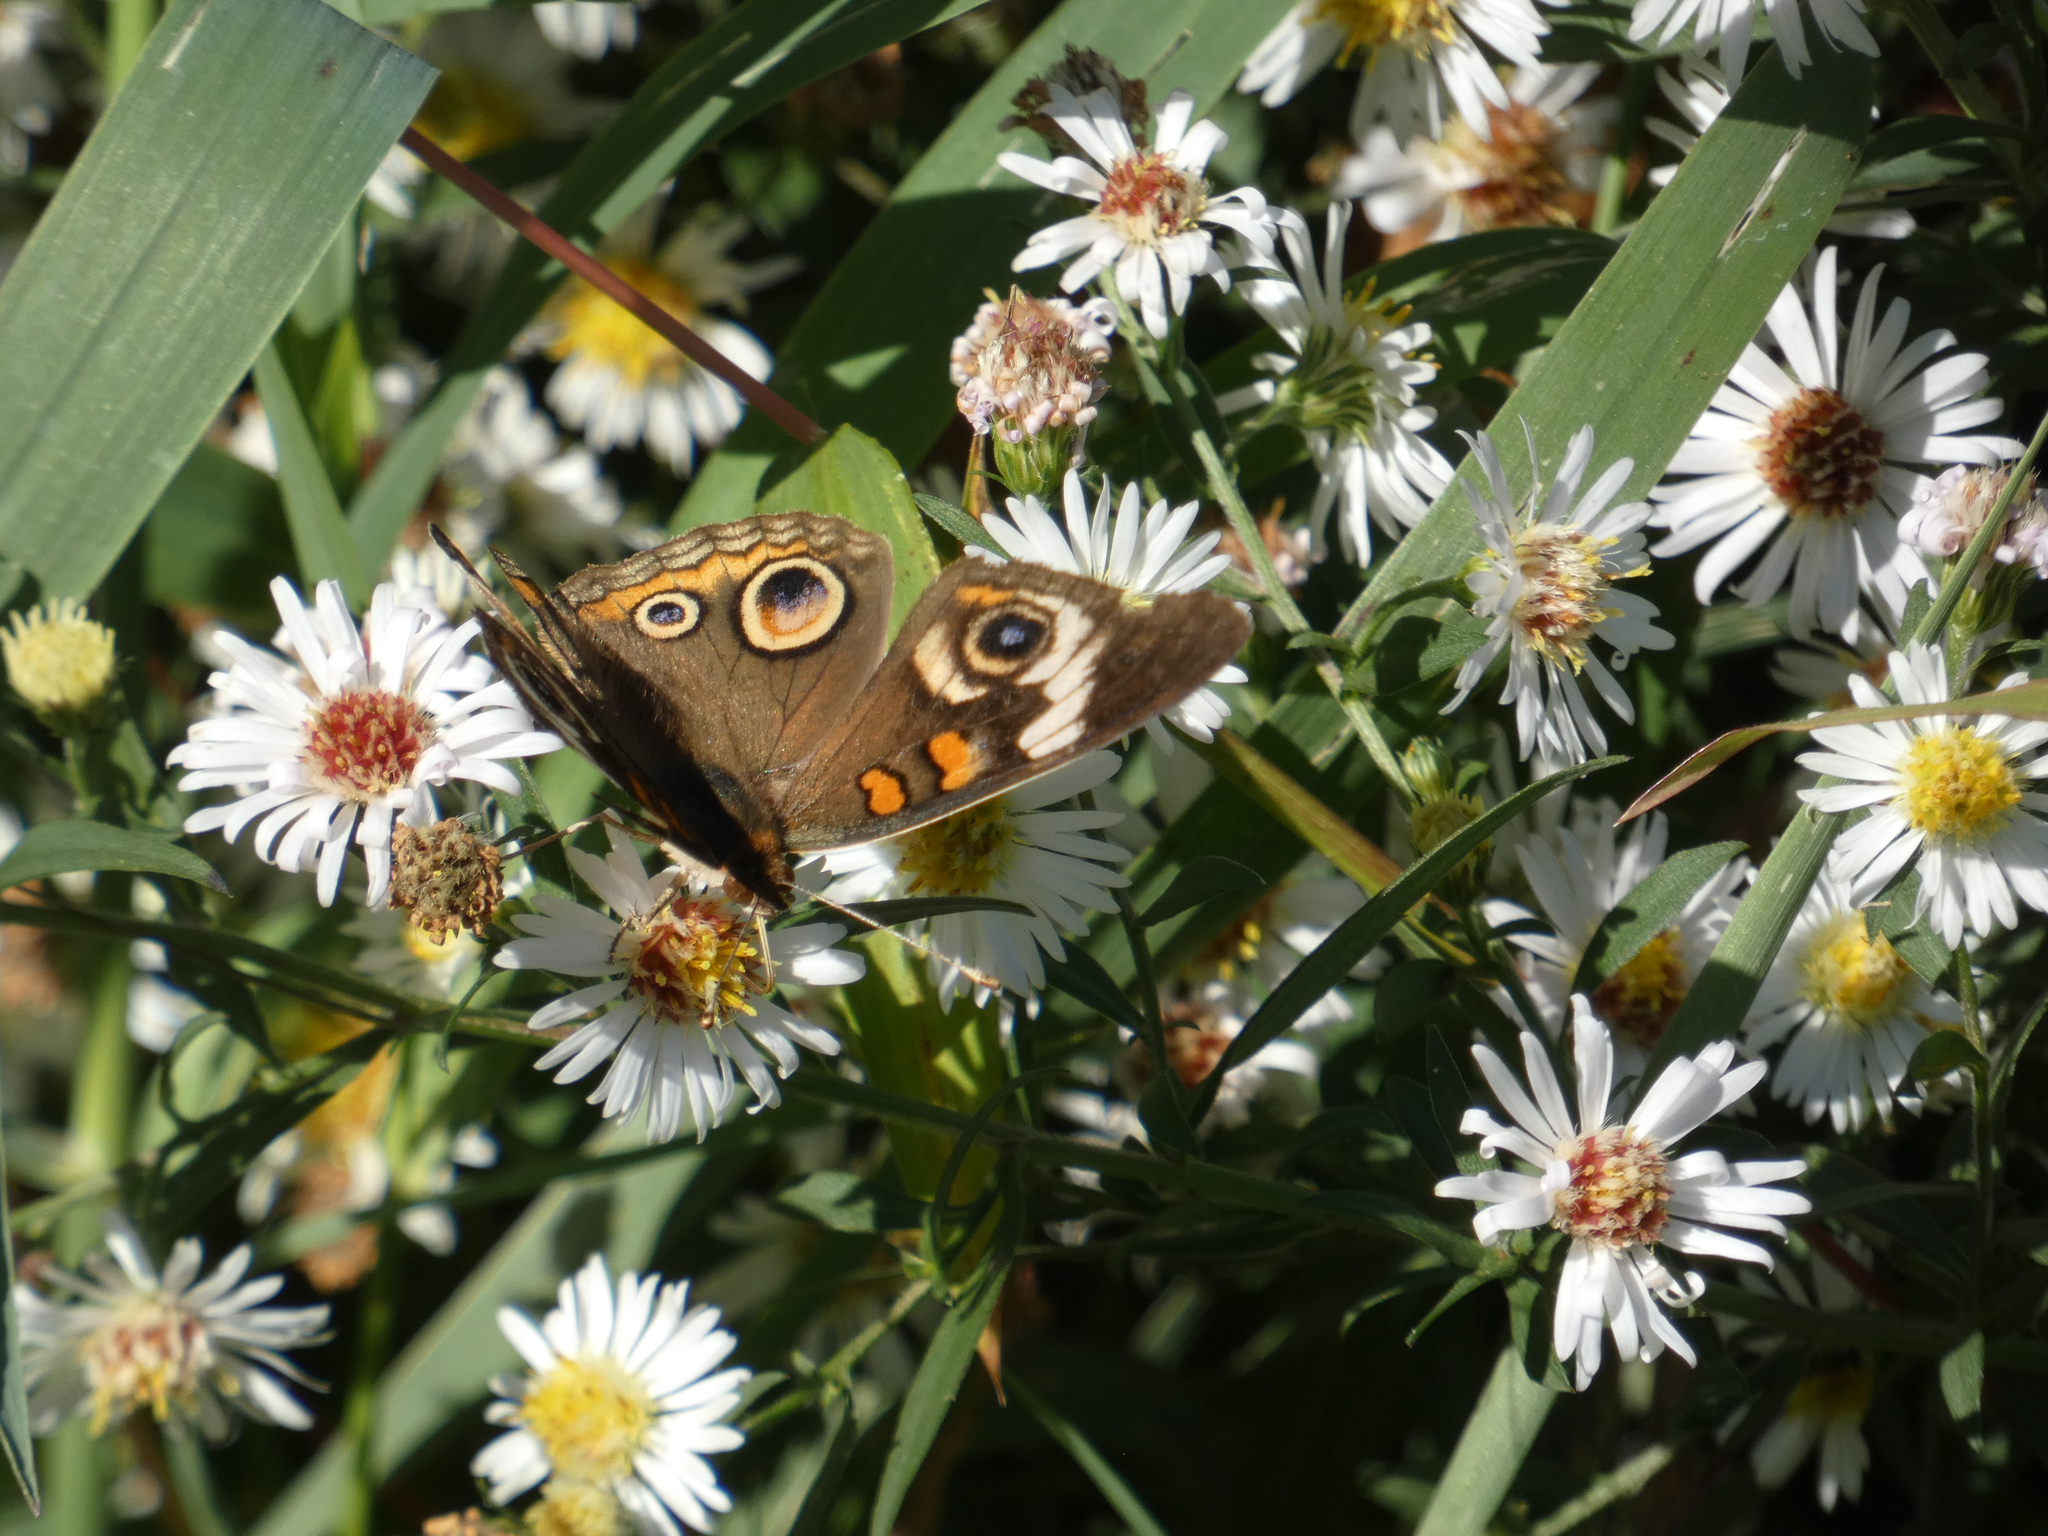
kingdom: Animalia
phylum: Arthropoda
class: Insecta
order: Lepidoptera
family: Nymphalidae
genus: Junonia
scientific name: Junonia coenia
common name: Common buckeye
